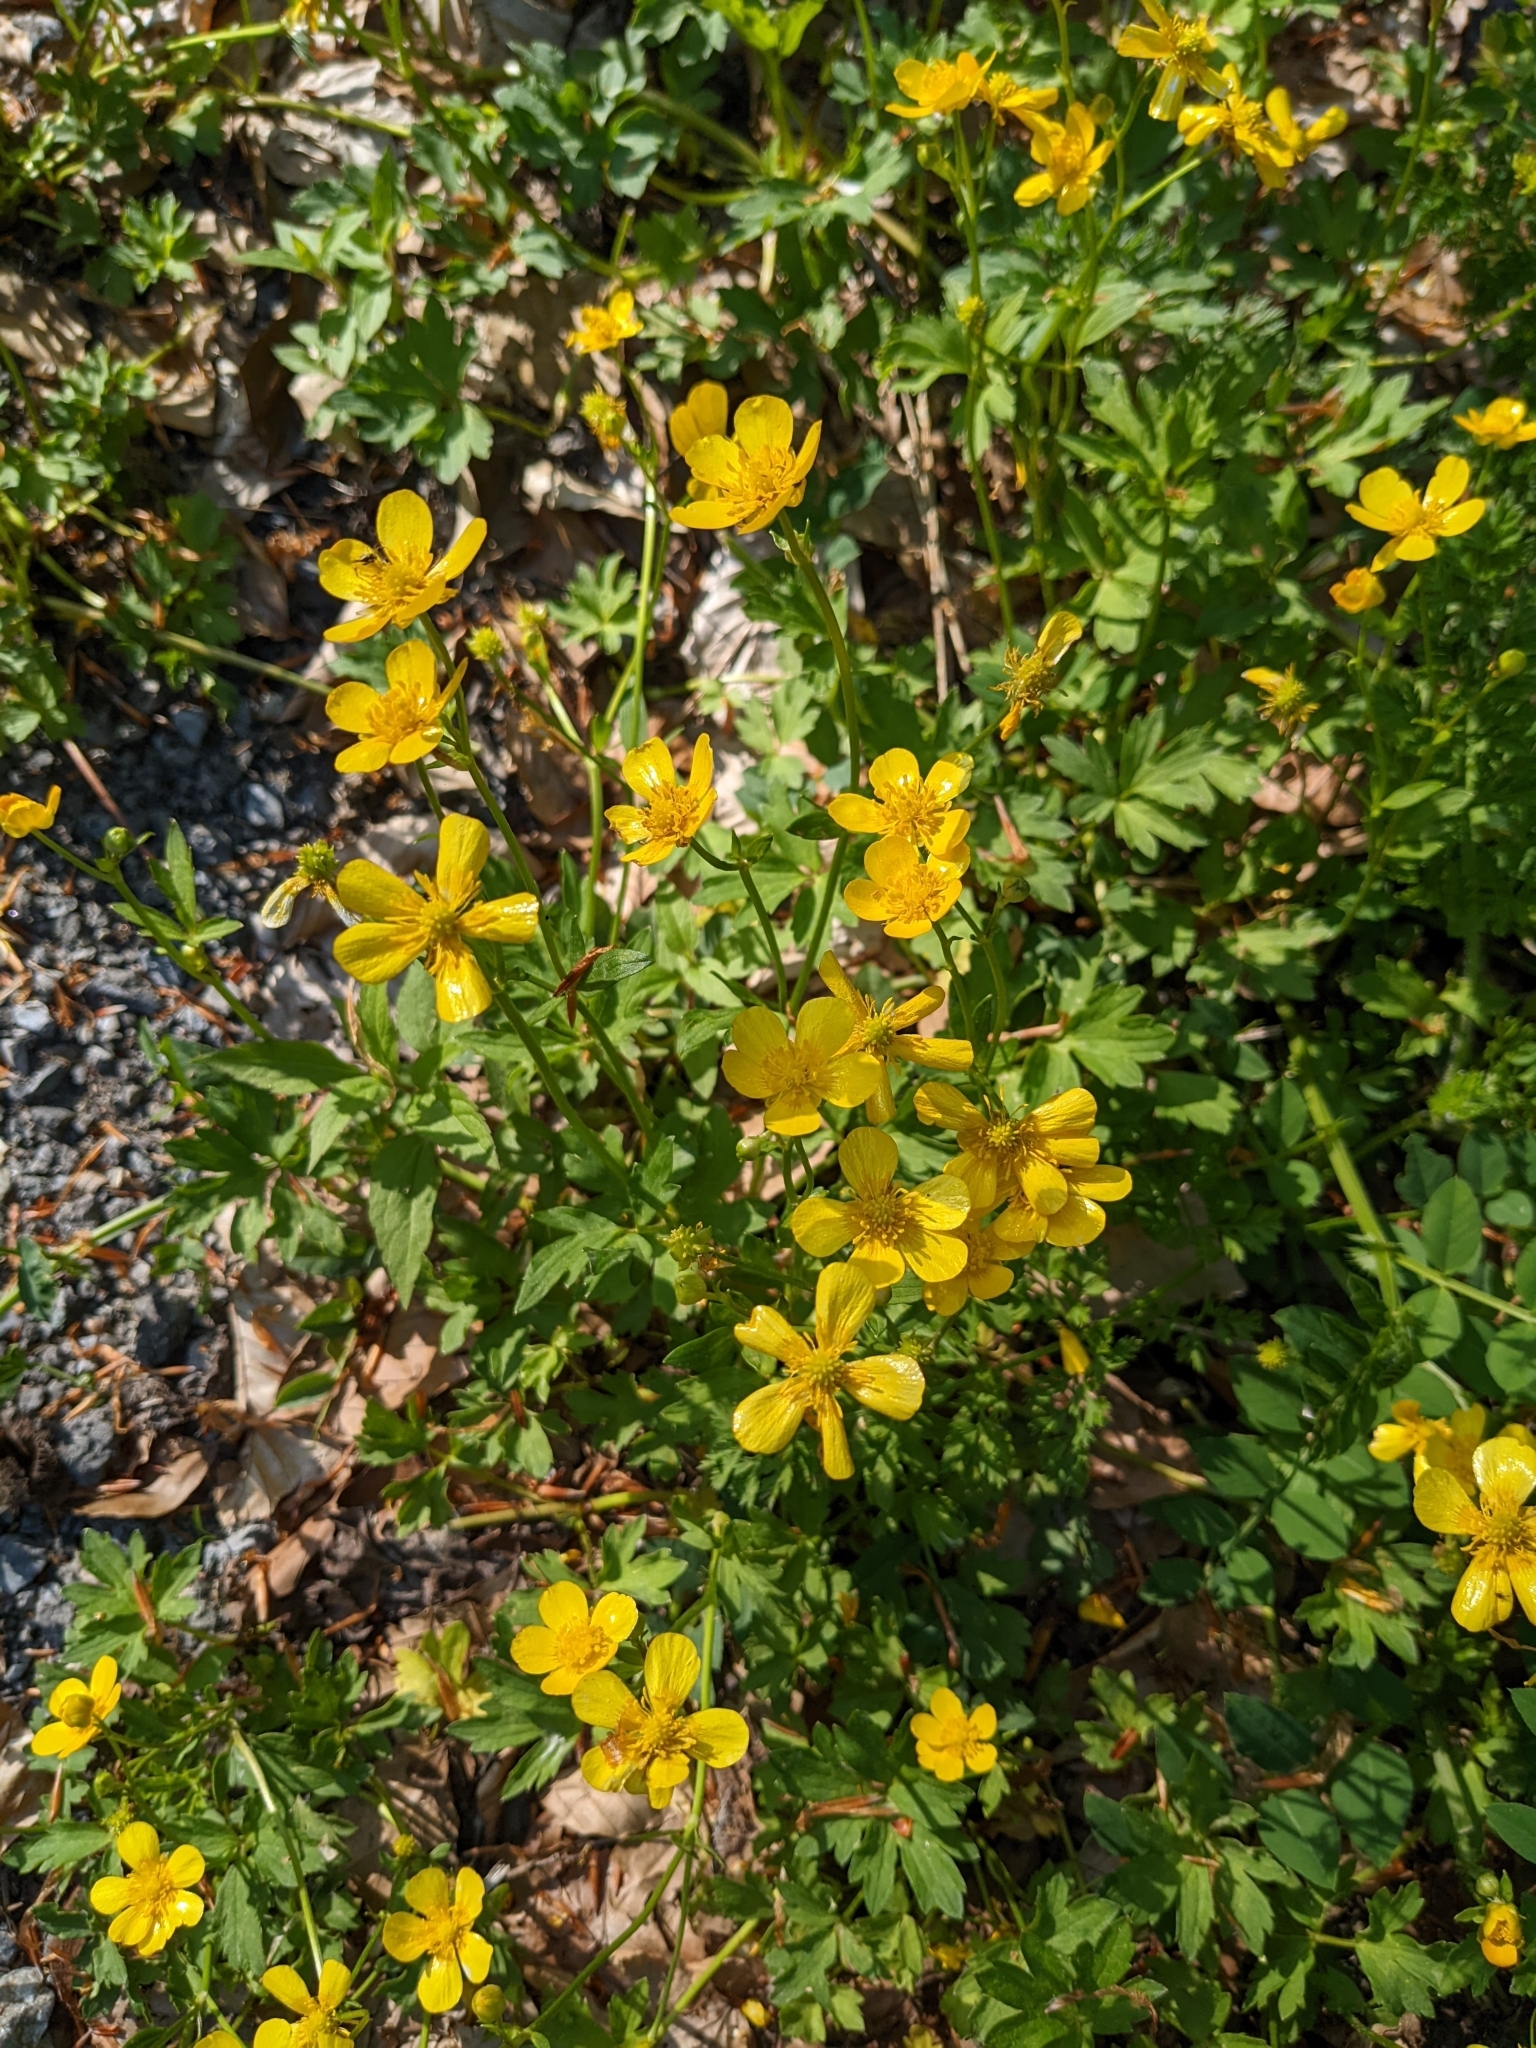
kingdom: Plantae
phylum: Tracheophyta
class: Magnoliopsida
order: Ranunculales
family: Ranunculaceae
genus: Ranunculus
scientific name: Ranunculus repens
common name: Creeping buttercup
